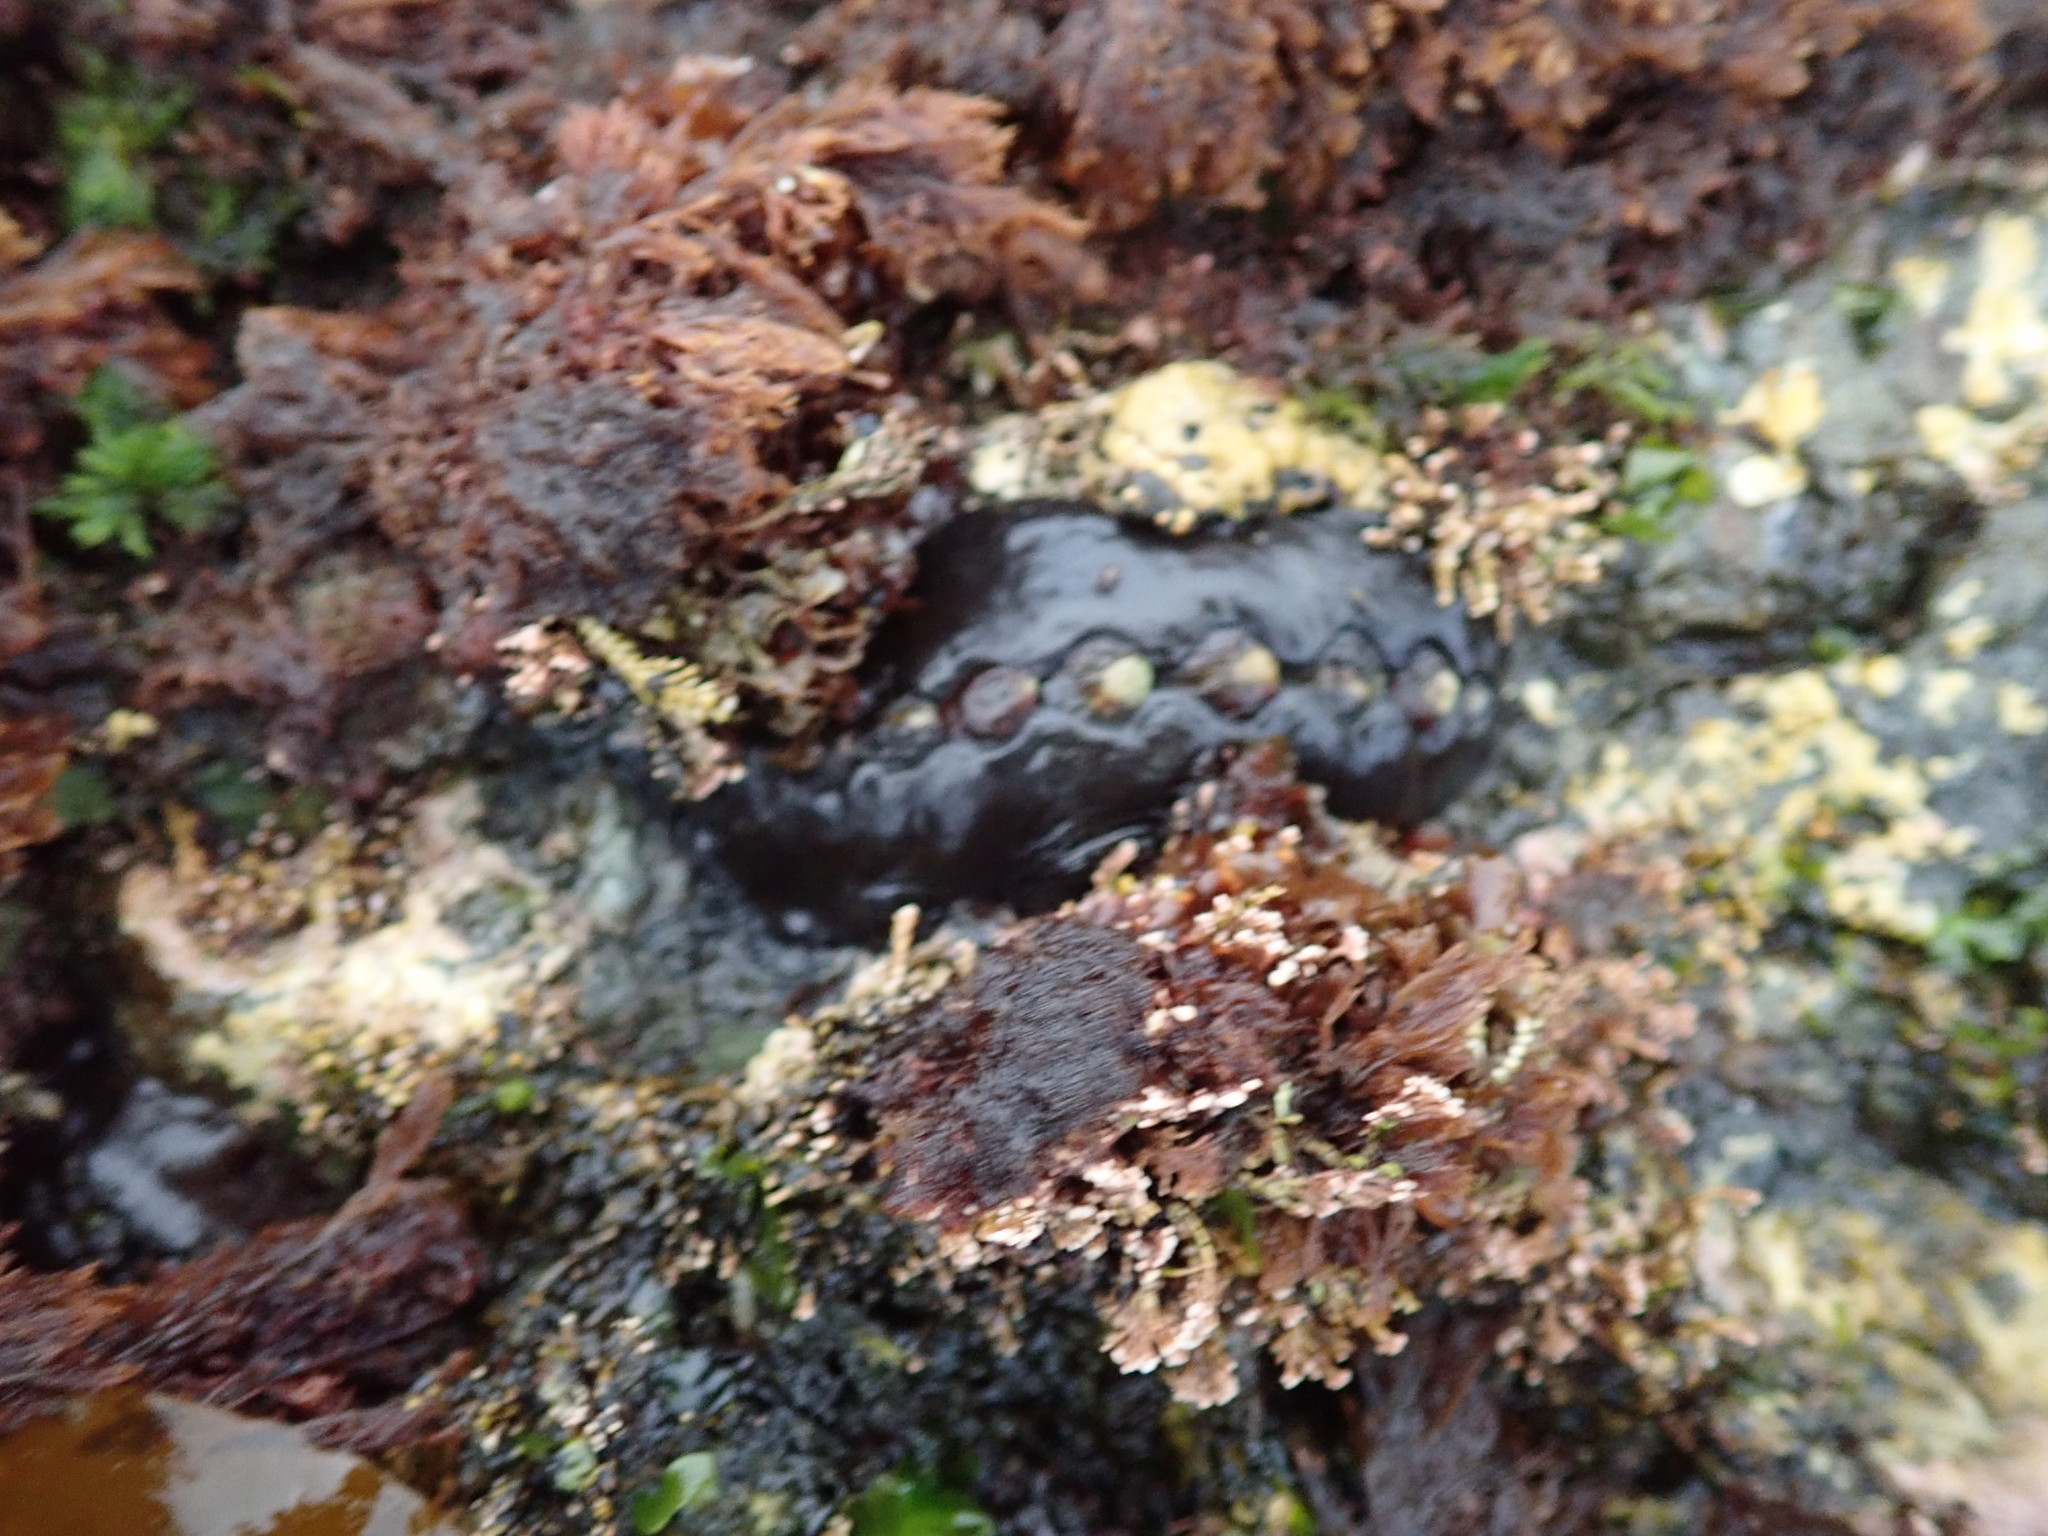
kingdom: Animalia
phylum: Mollusca
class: Polyplacophora
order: Chitonida
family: Mopaliidae
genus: Katharina
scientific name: Katharina tunicata
